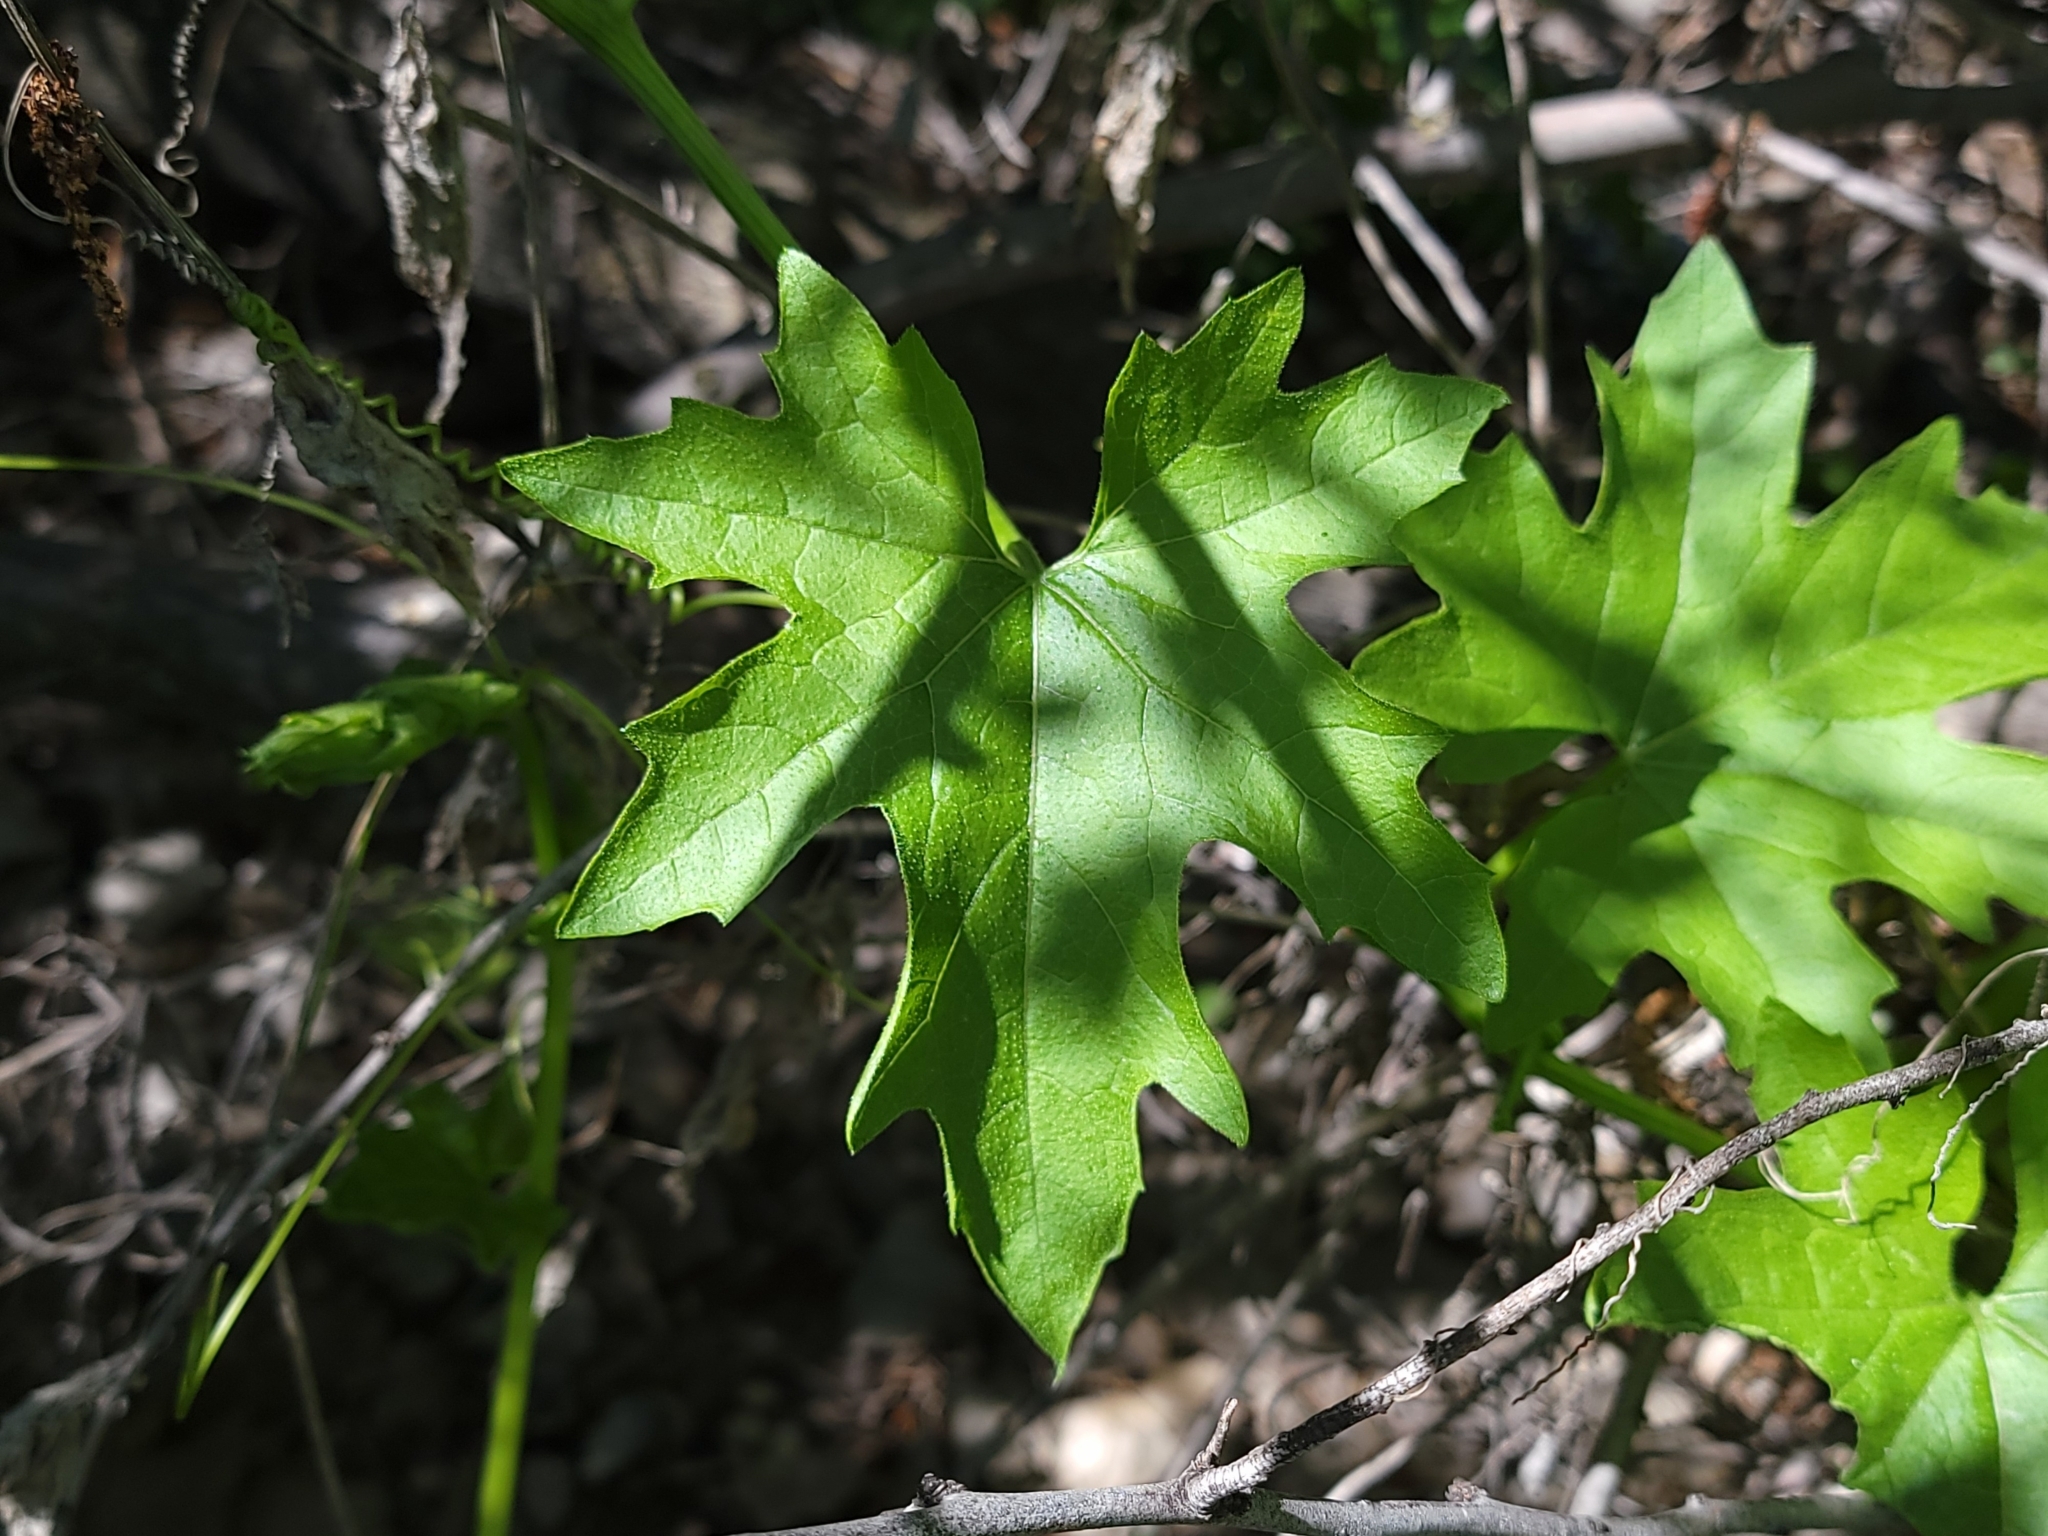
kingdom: Plantae
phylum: Tracheophyta
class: Magnoliopsida
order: Cucurbitales
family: Cucurbitaceae
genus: Bryonia
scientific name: Bryonia alba
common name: White bryony
